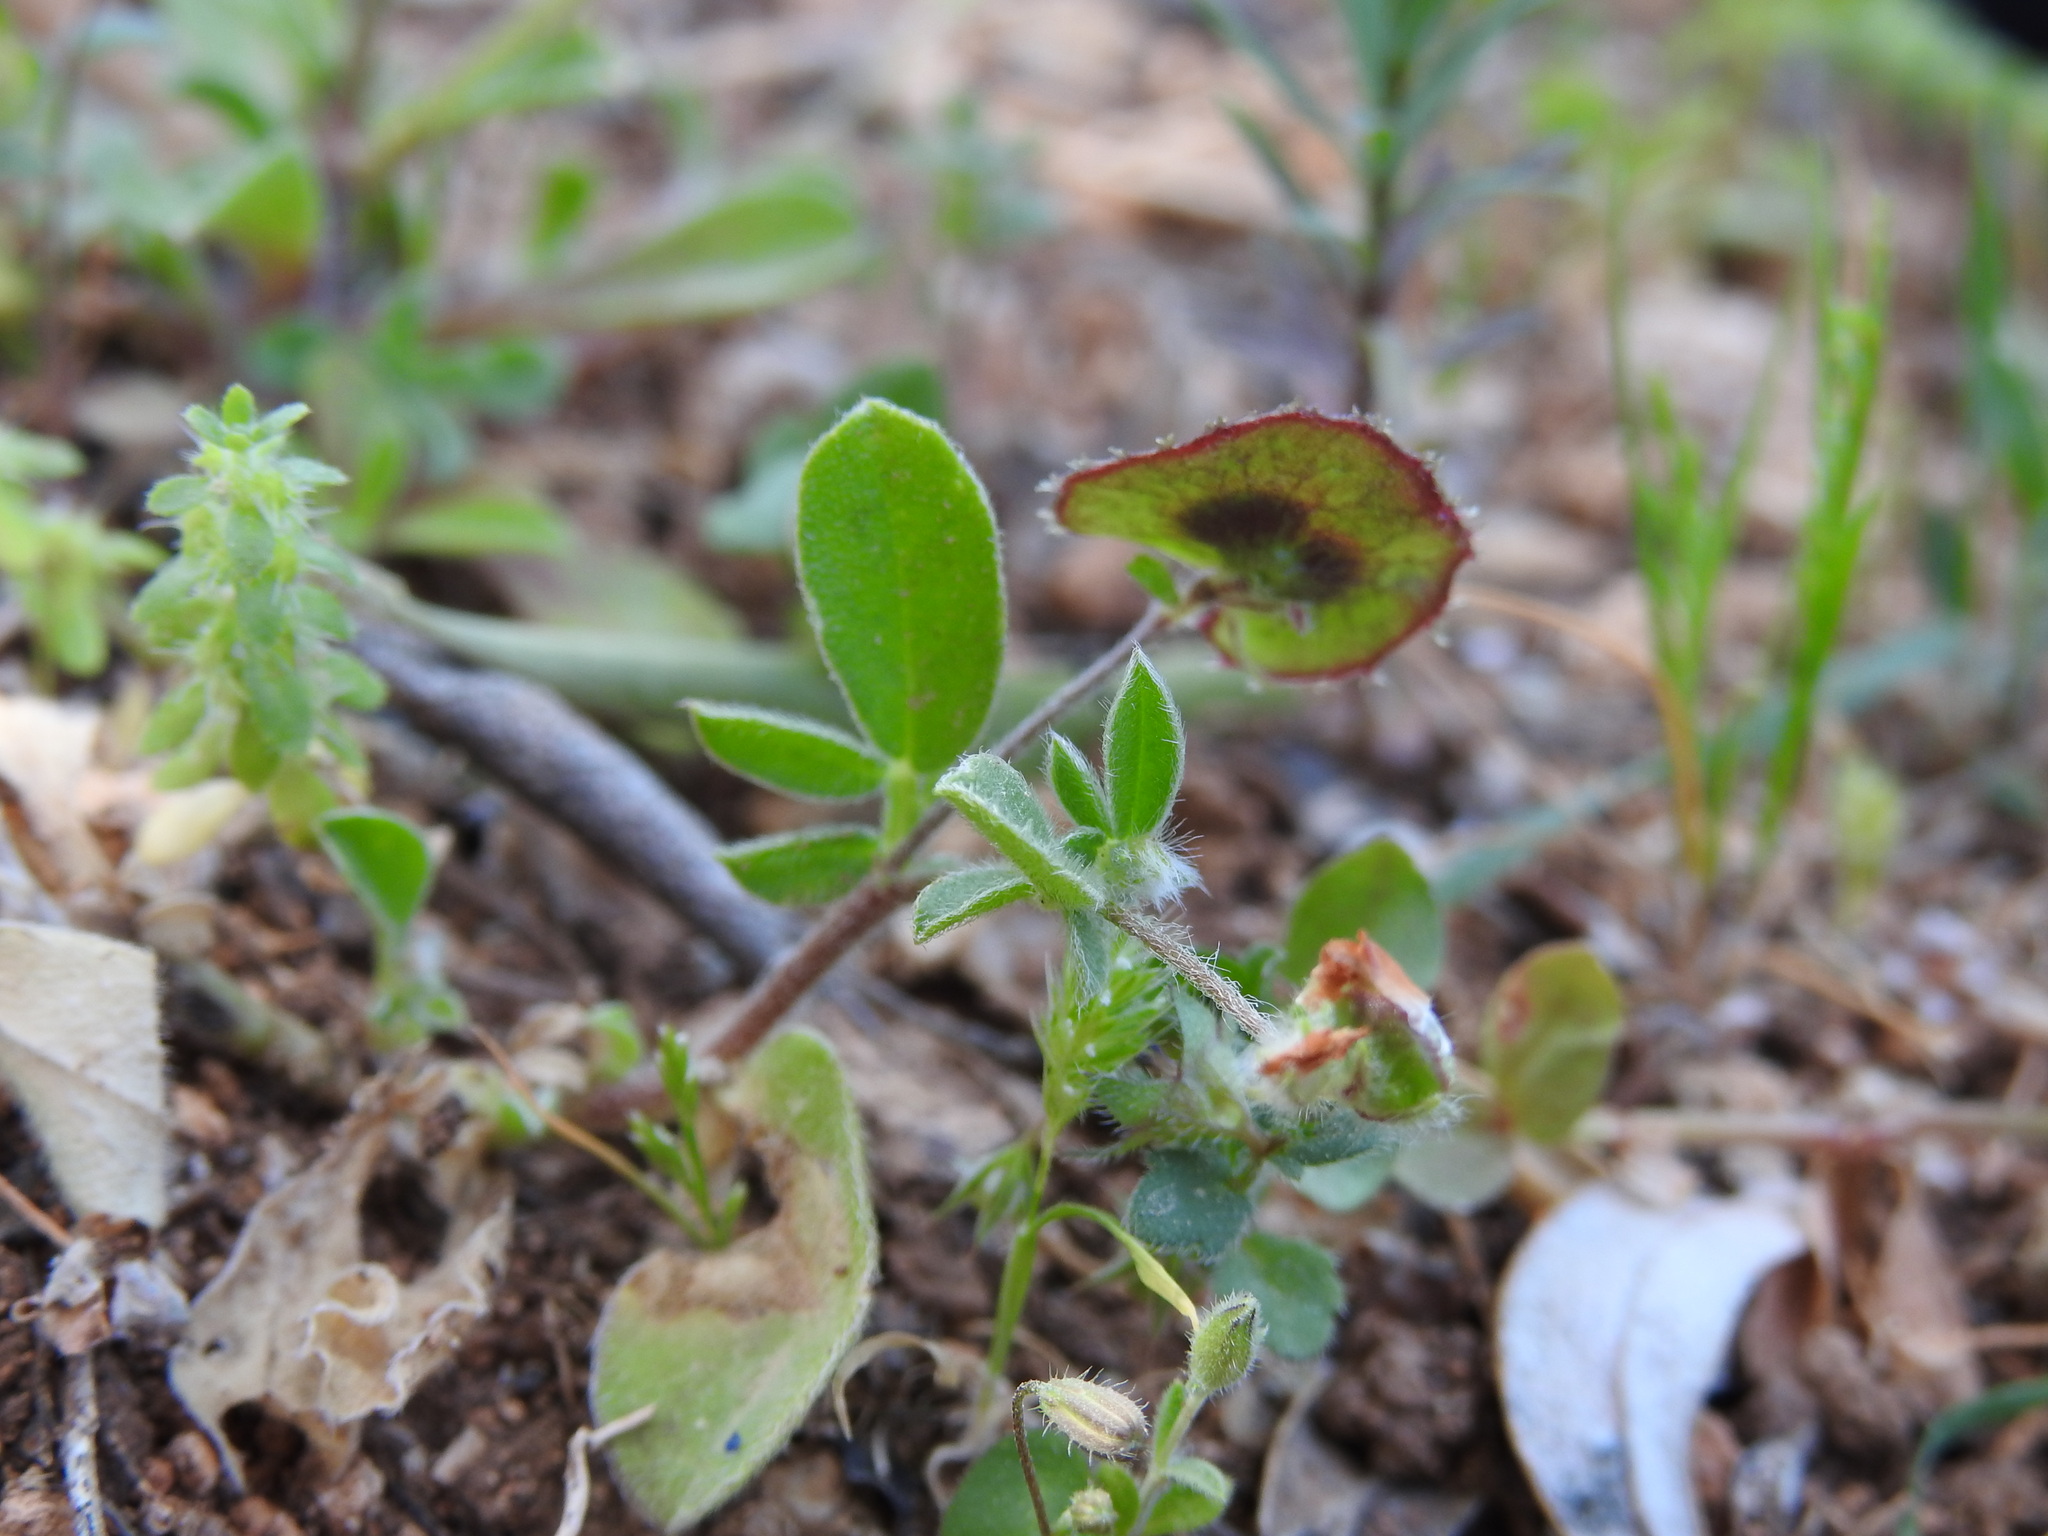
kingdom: Plantae
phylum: Tracheophyta
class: Magnoliopsida
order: Fabales
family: Fabaceae
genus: Anthyllis
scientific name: Anthyllis circinnata
